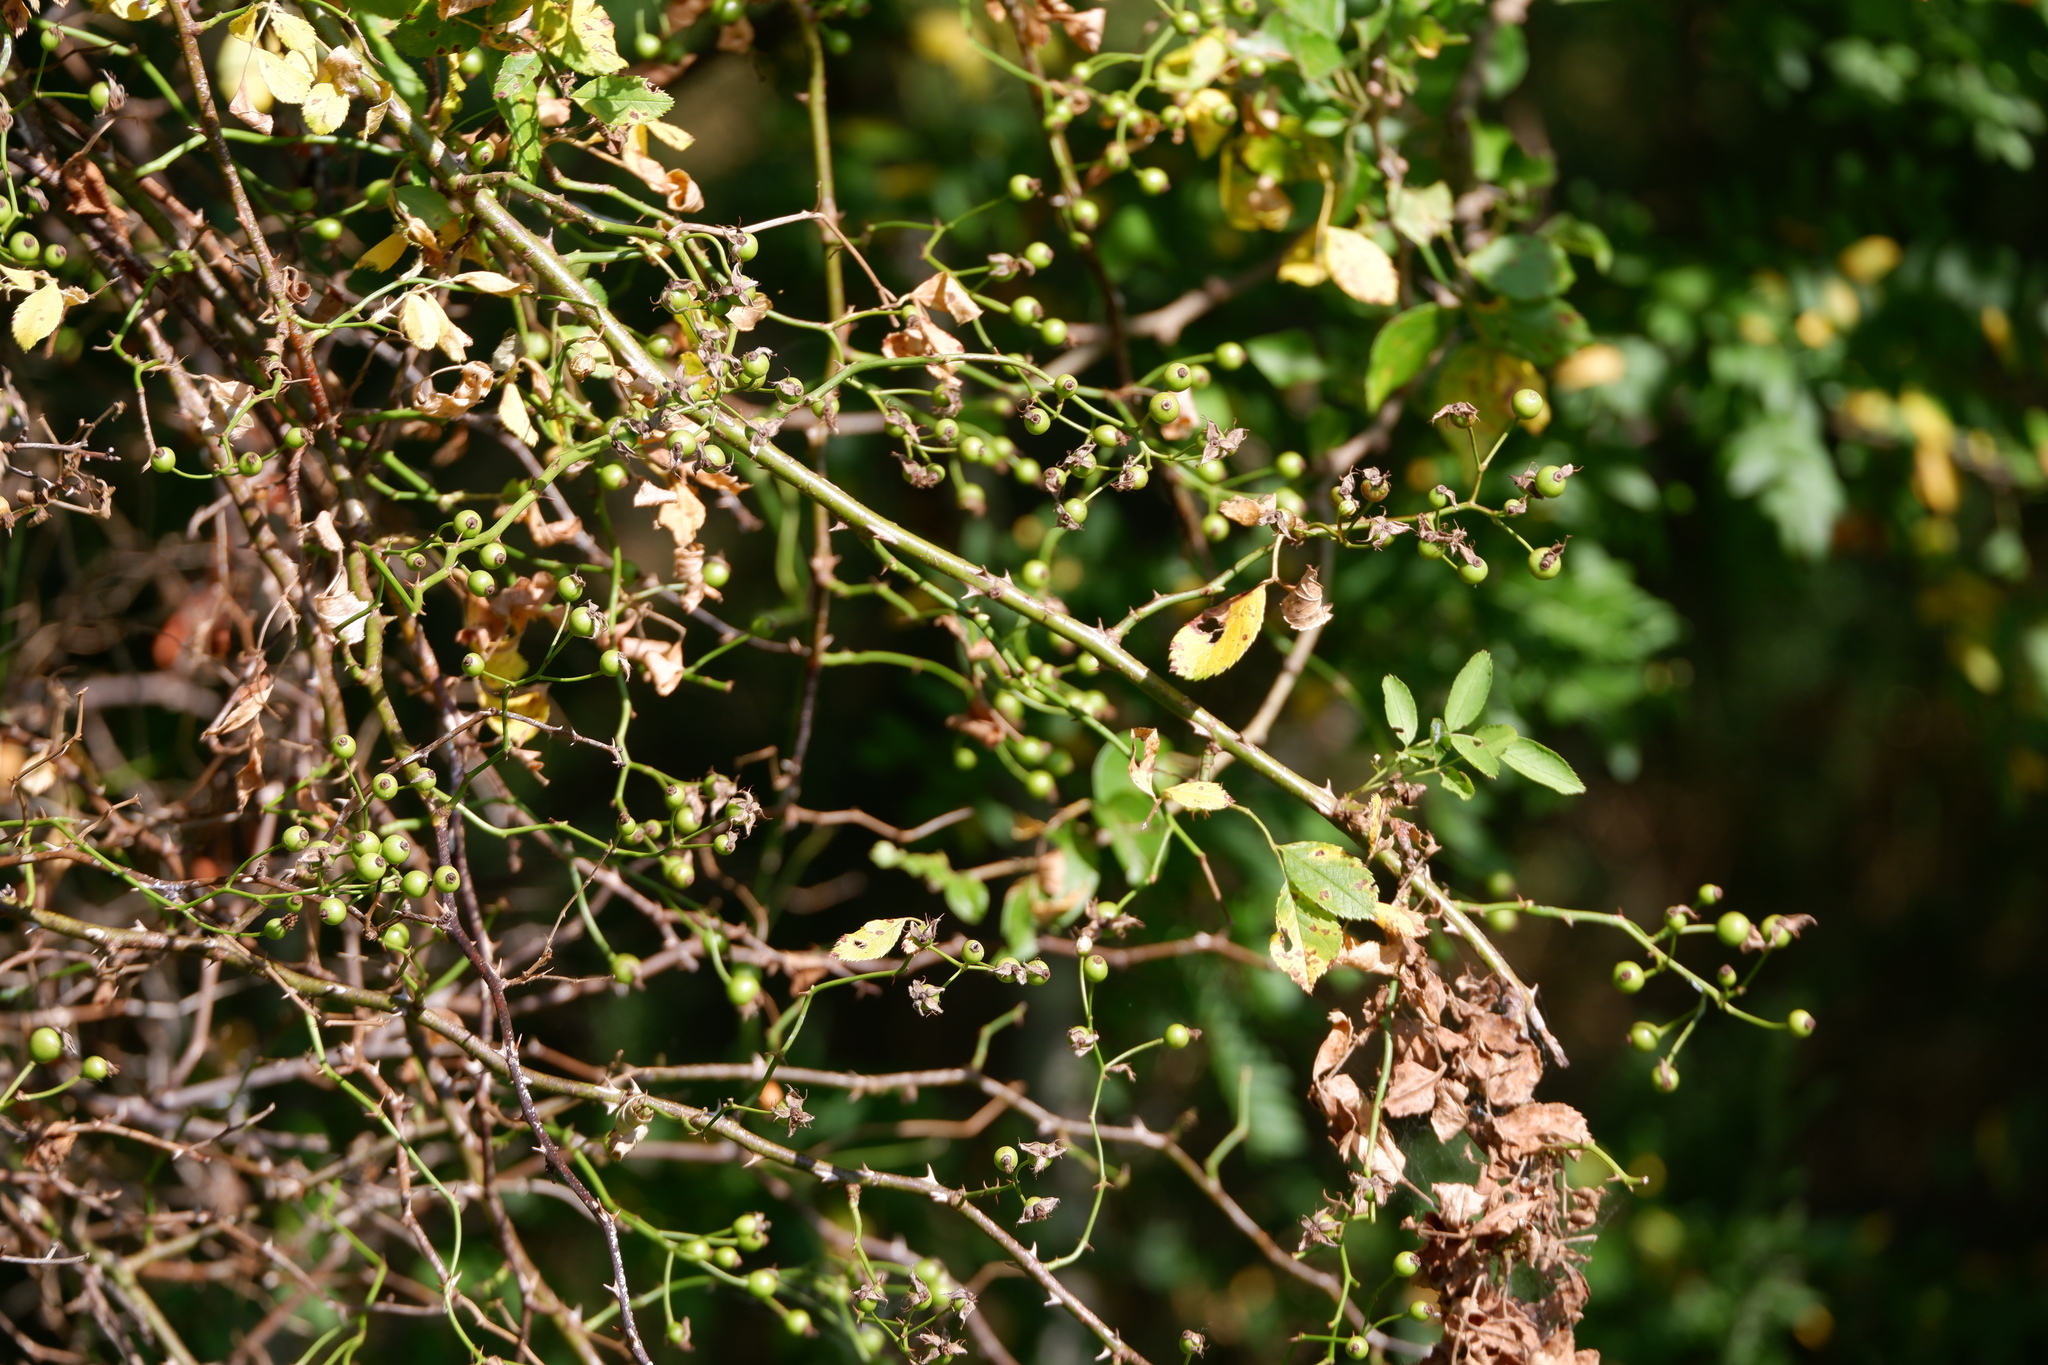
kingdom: Plantae
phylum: Tracheophyta
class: Magnoliopsida
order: Rosales
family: Rosaceae
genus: Rosa
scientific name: Rosa multiflora
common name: Multiflora rose
